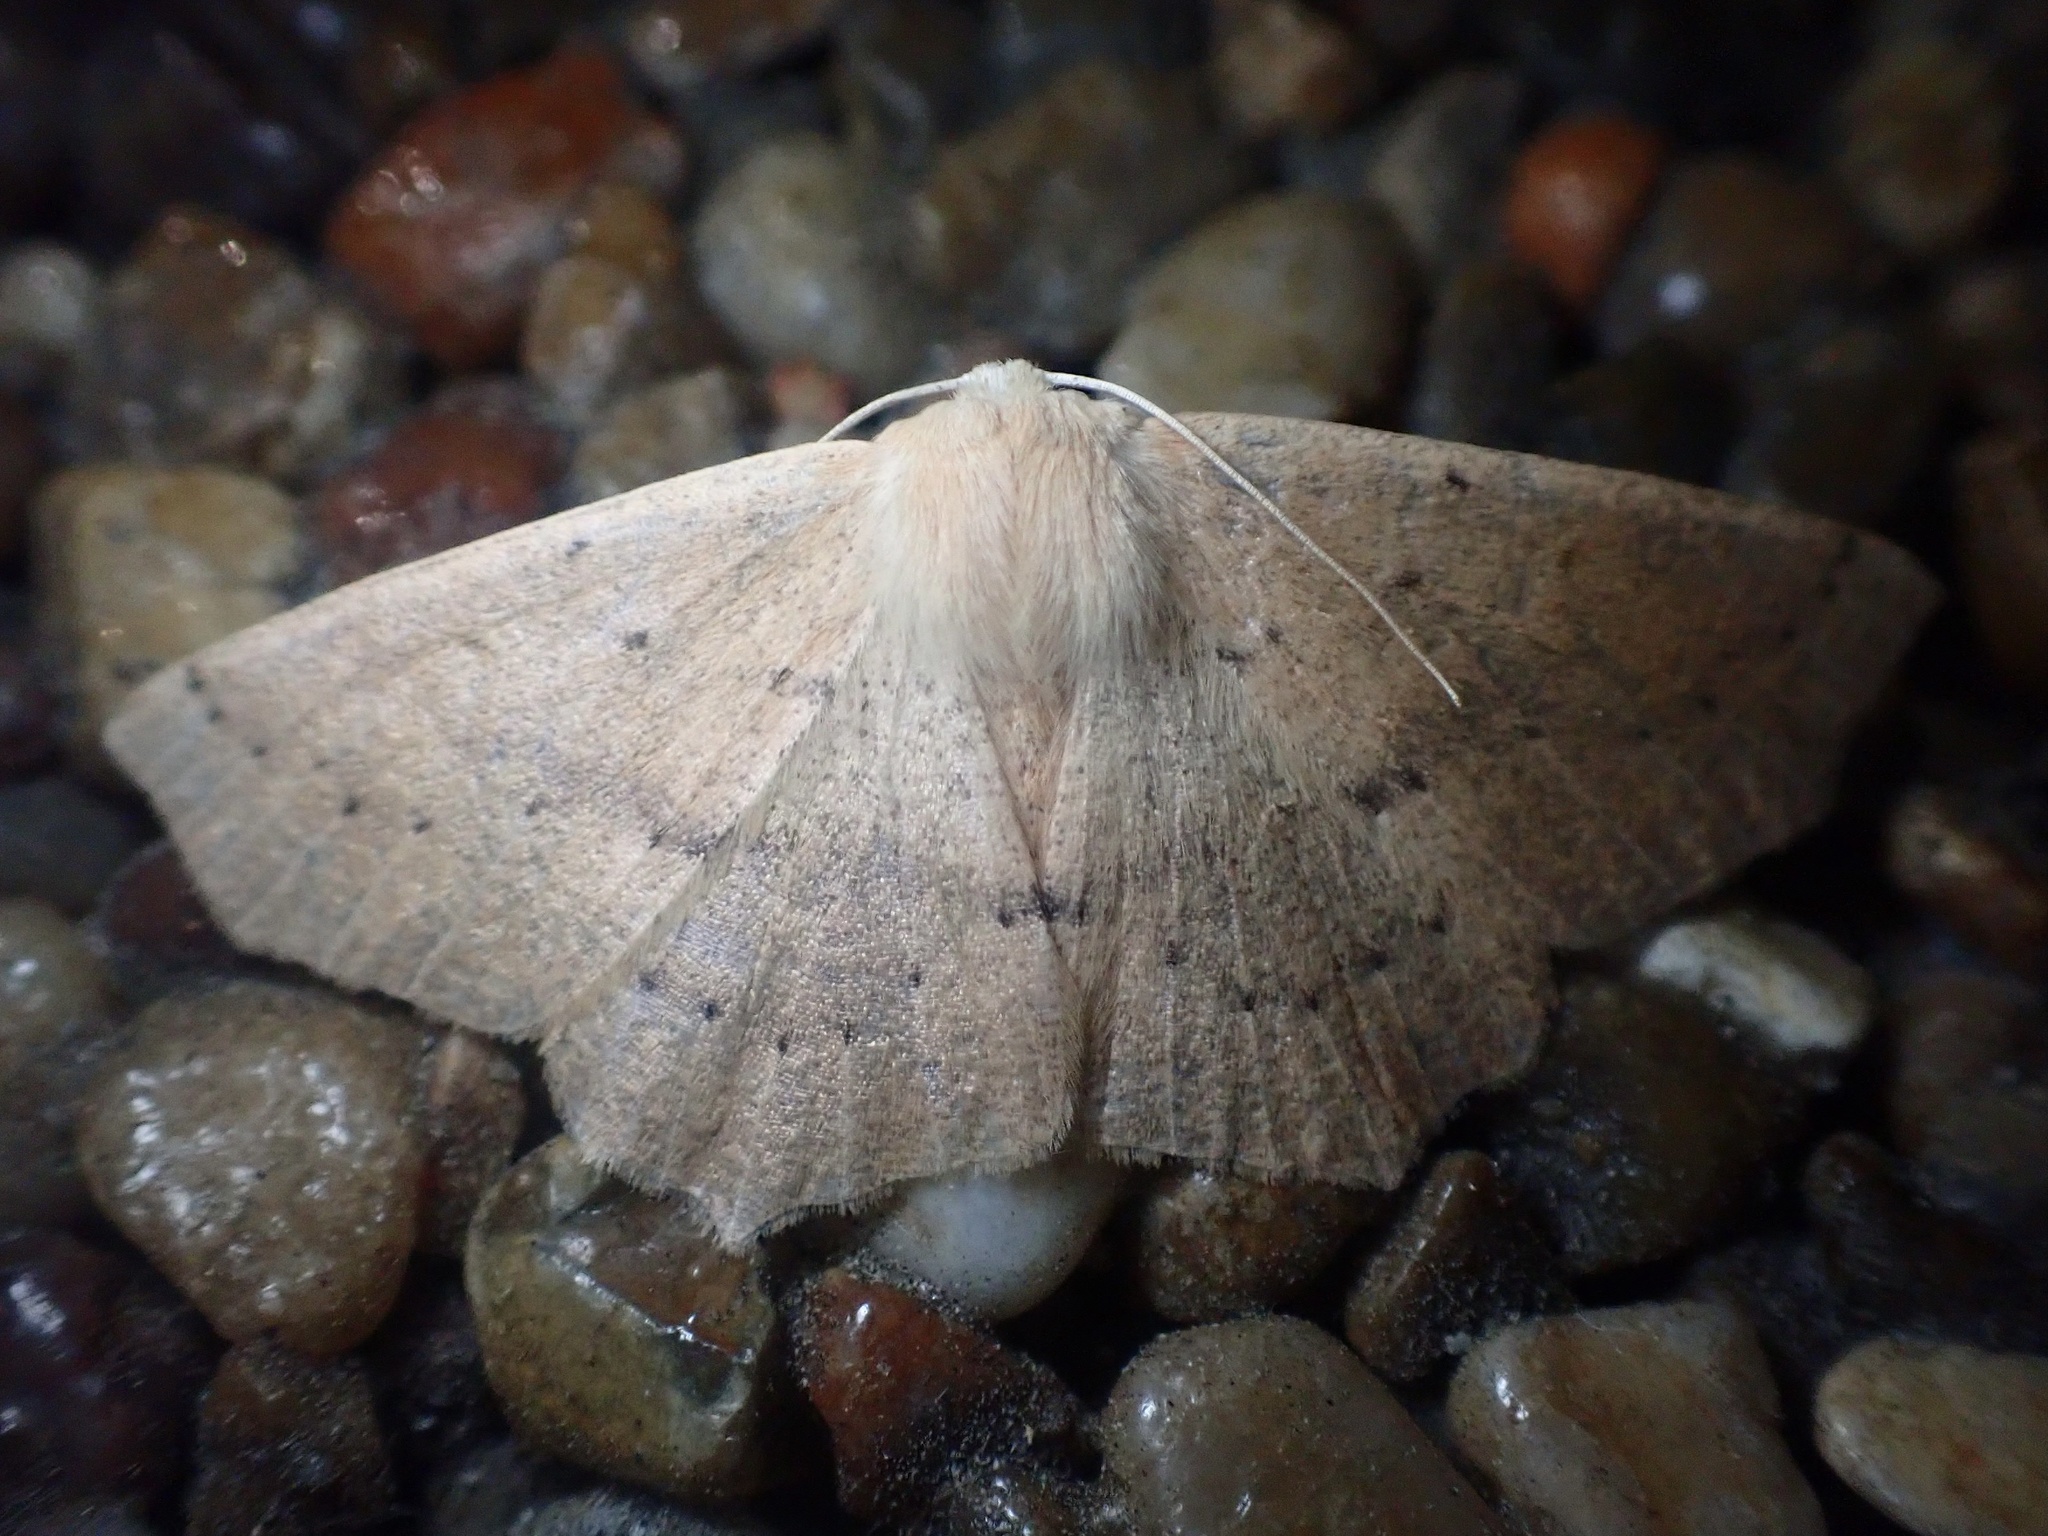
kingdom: Animalia
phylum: Arthropoda
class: Insecta
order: Lepidoptera
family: Geometridae
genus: Sabulodes
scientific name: Sabulodes aegrotata
